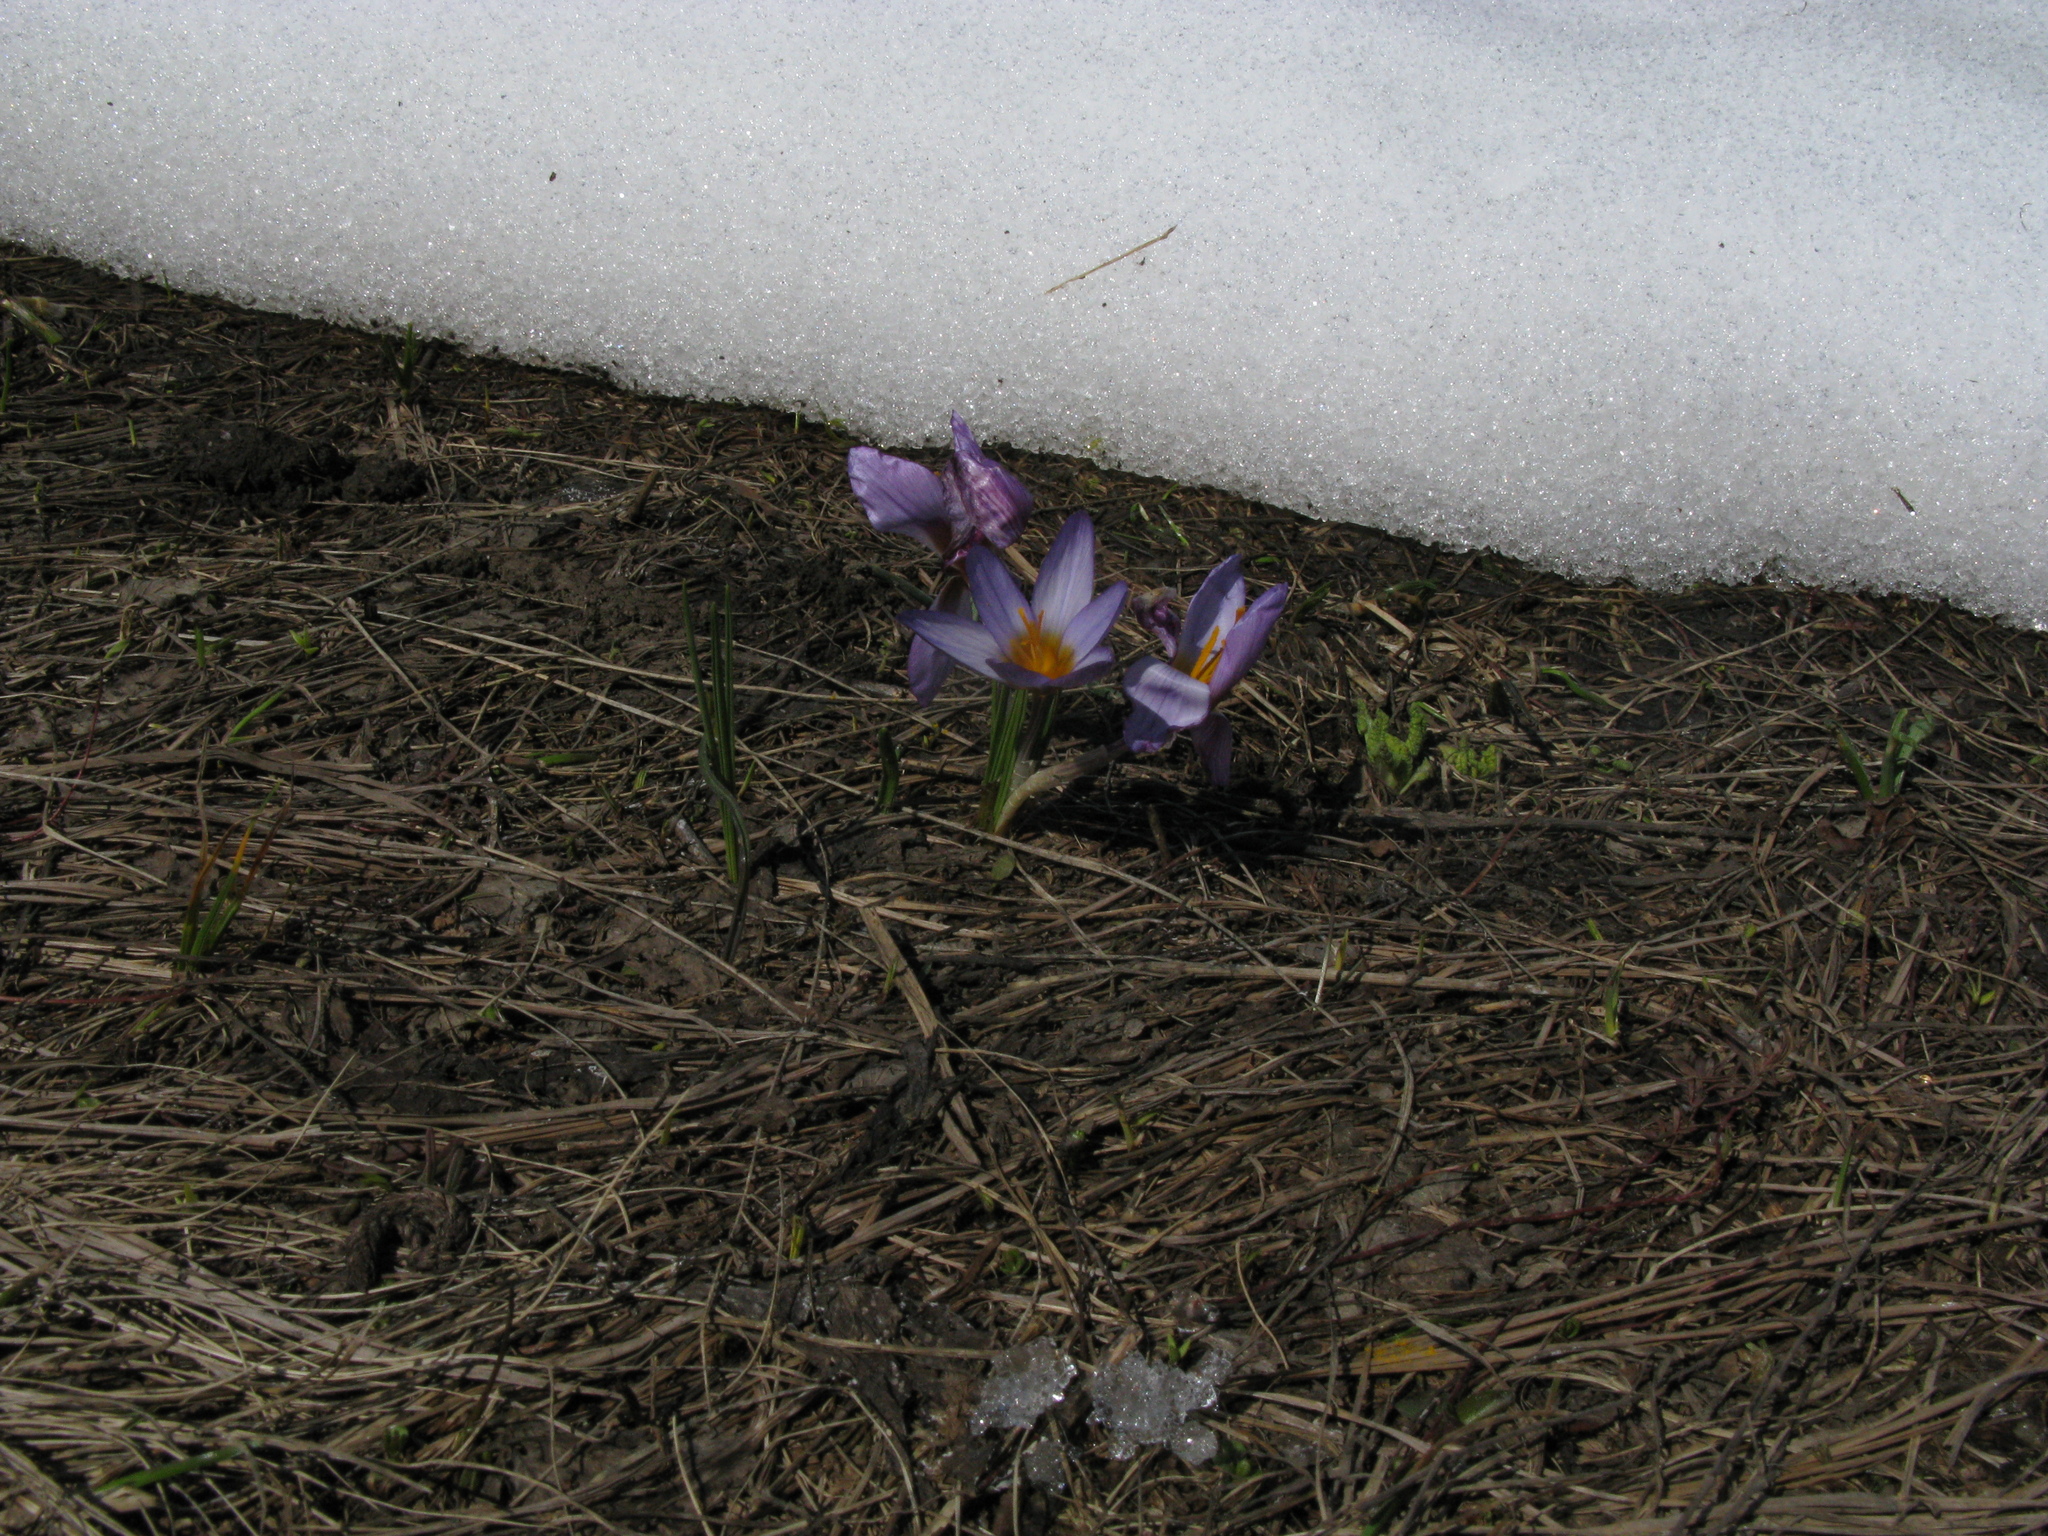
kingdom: Plantae
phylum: Tracheophyta
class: Liliopsida
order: Asparagales
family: Iridaceae
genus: Crocus
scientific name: Crocus tauricus
